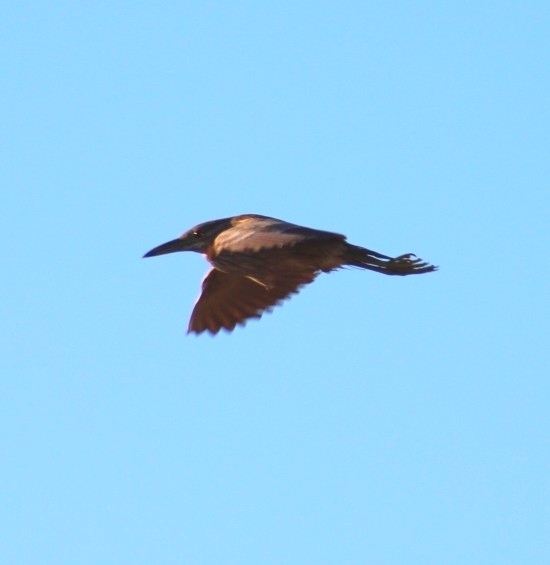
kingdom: Animalia
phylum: Chordata
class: Aves
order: Pelecaniformes
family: Ardeidae
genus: Nycticorax
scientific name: Nycticorax nycticorax
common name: Black-crowned night heron
